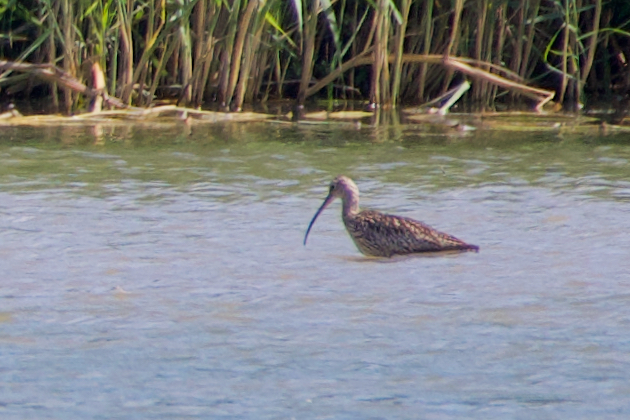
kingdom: Animalia
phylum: Chordata
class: Aves
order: Charadriiformes
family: Scolopacidae
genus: Numenius
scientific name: Numenius arquata
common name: Eurasian curlew
